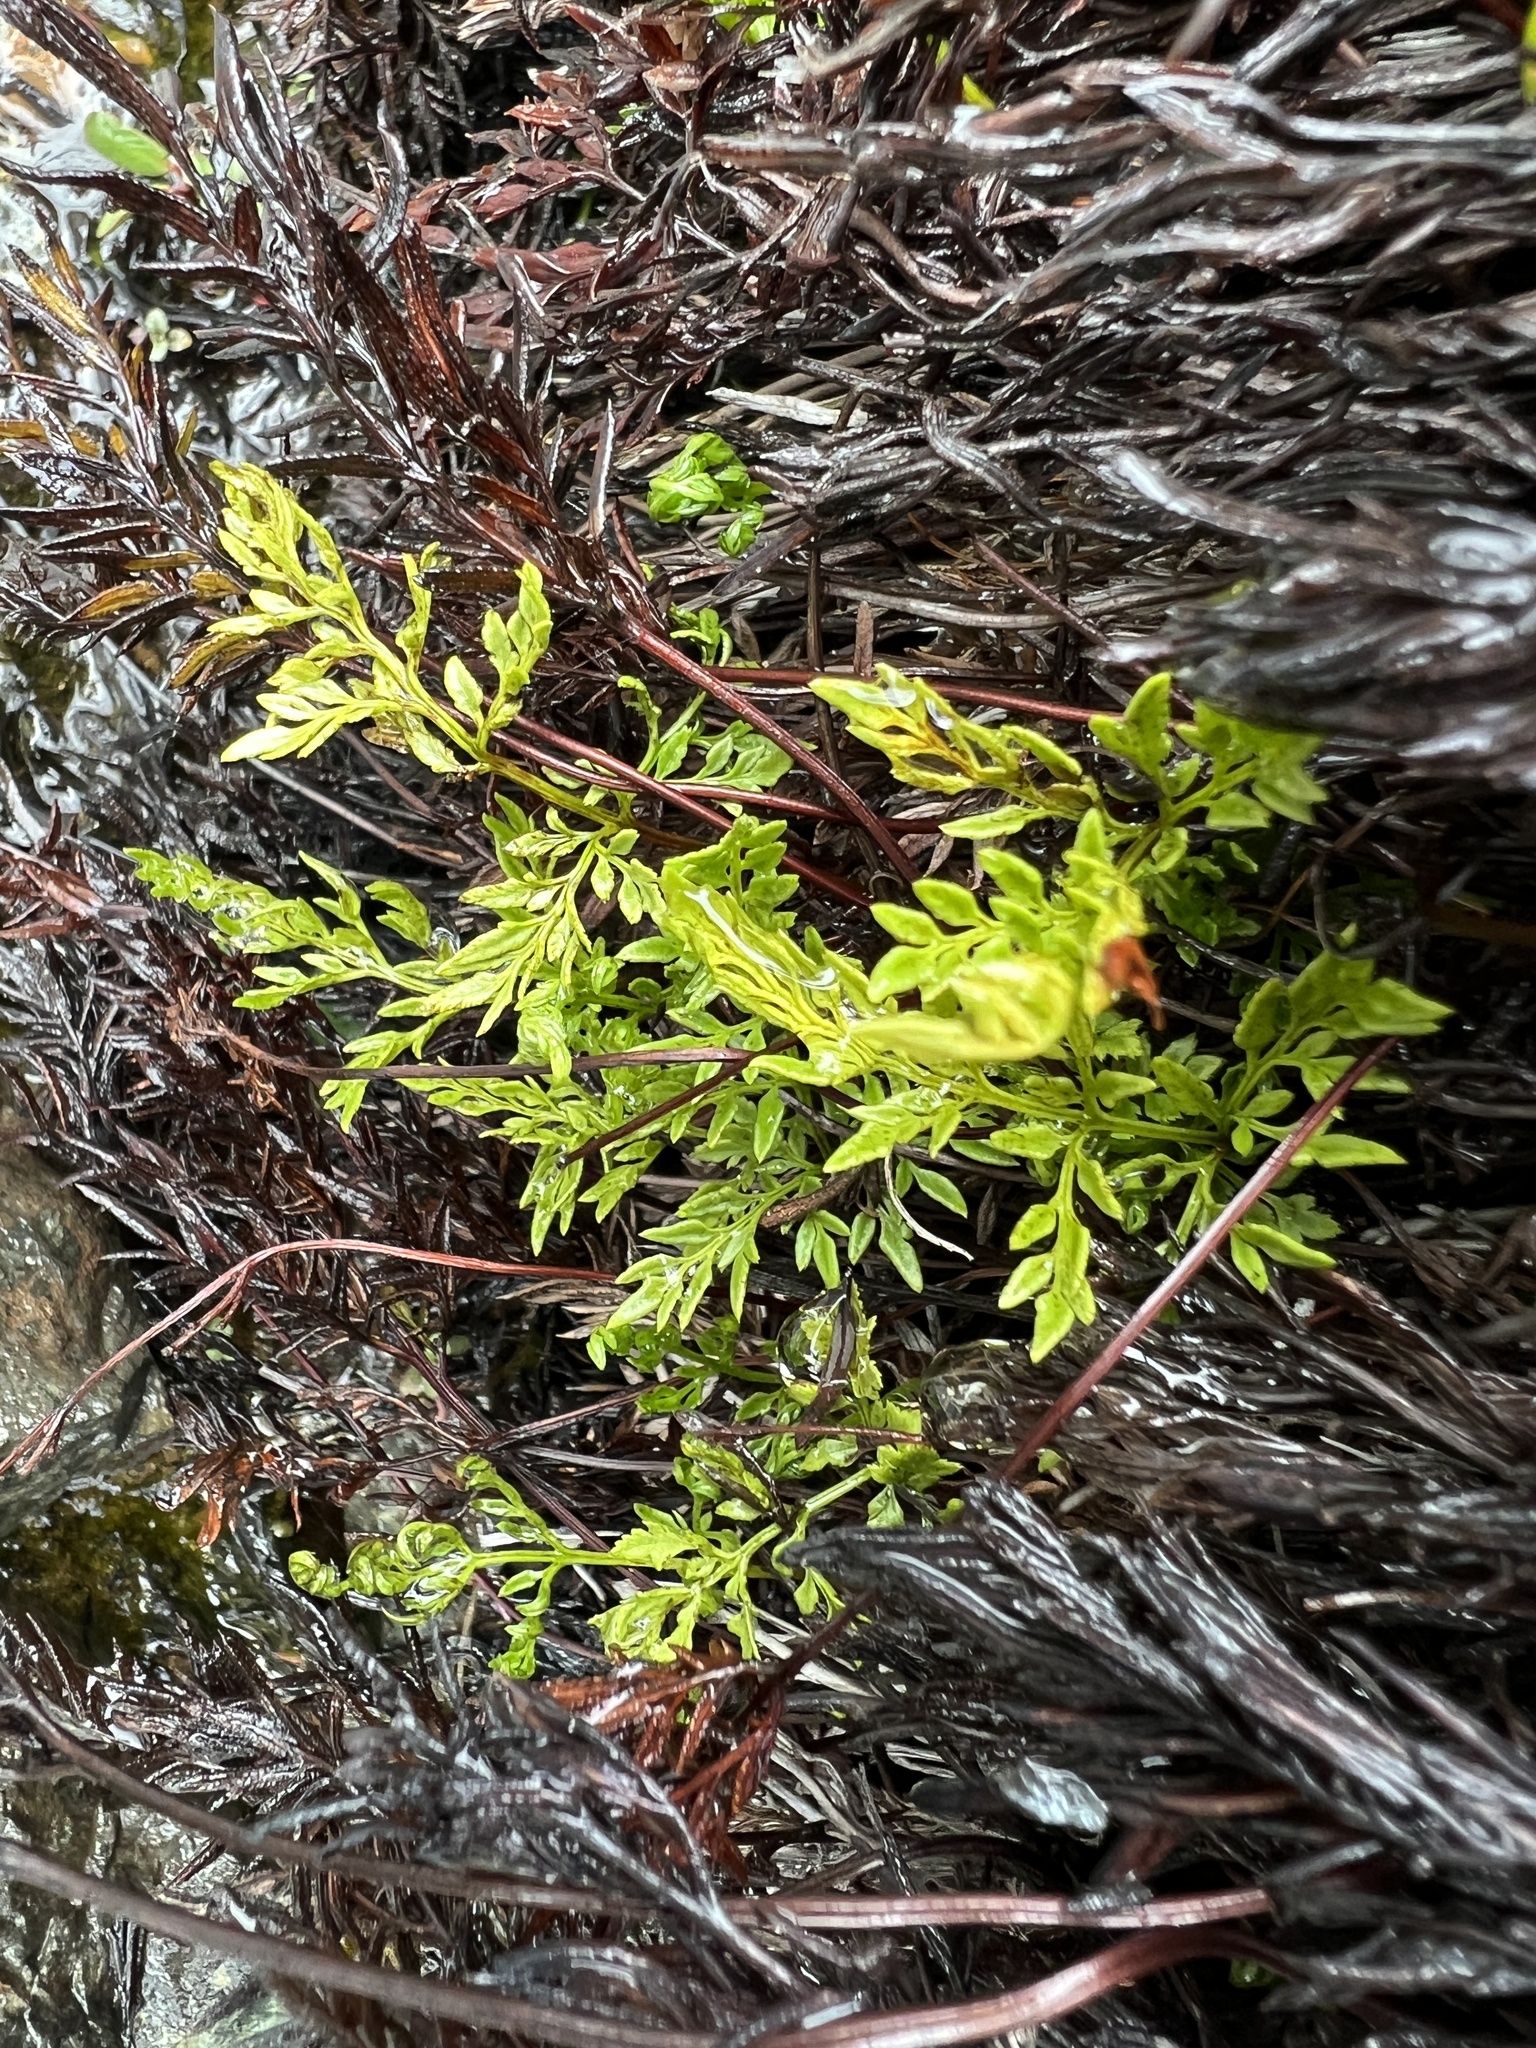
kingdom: Plantae
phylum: Tracheophyta
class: Polypodiopsida
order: Polypodiales
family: Pteridaceae
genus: Aspidotis
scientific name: Aspidotis densa
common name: Indian's dream
